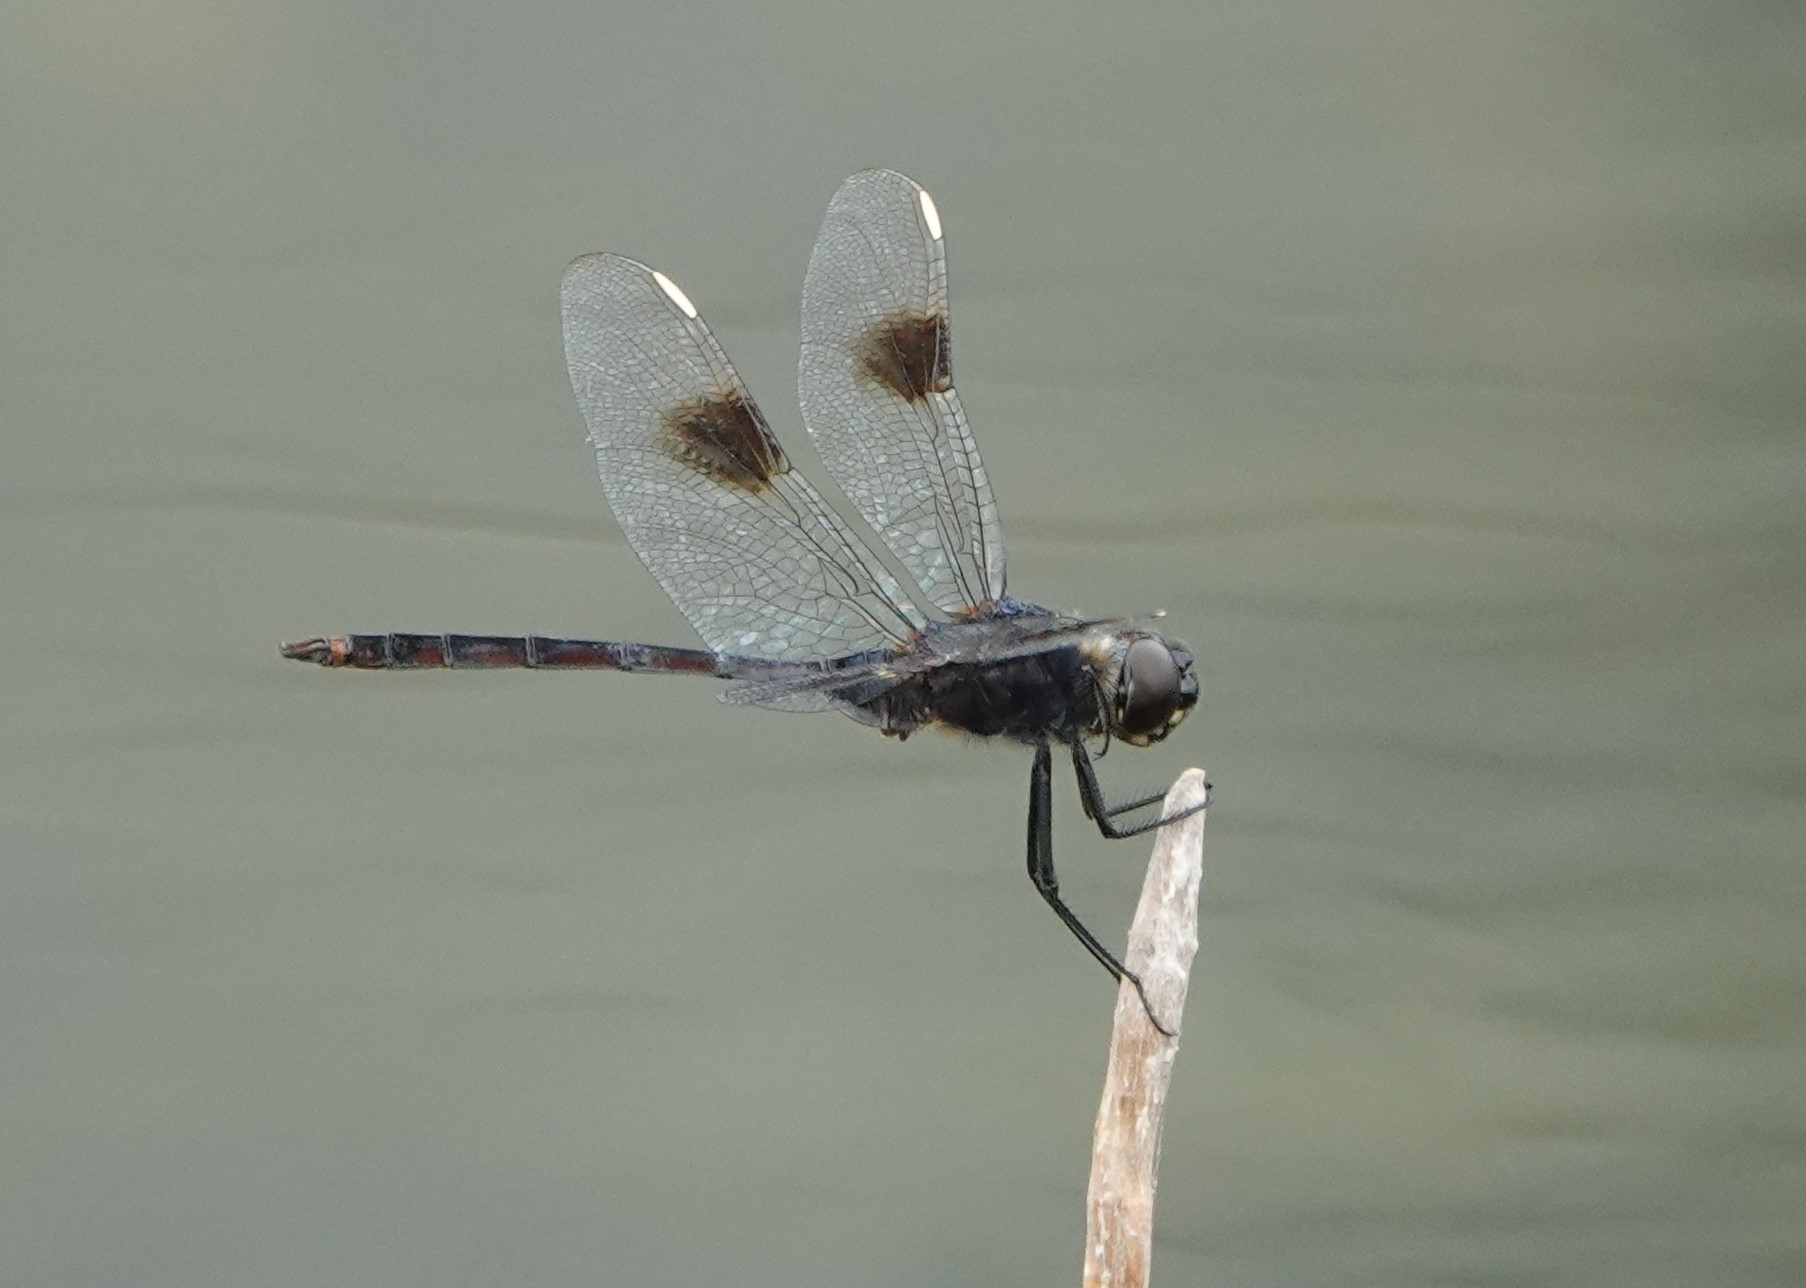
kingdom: Animalia
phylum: Arthropoda
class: Insecta
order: Odonata
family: Libellulidae
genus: Brachymesia
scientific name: Brachymesia gravida
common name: Four-spotted pennant
